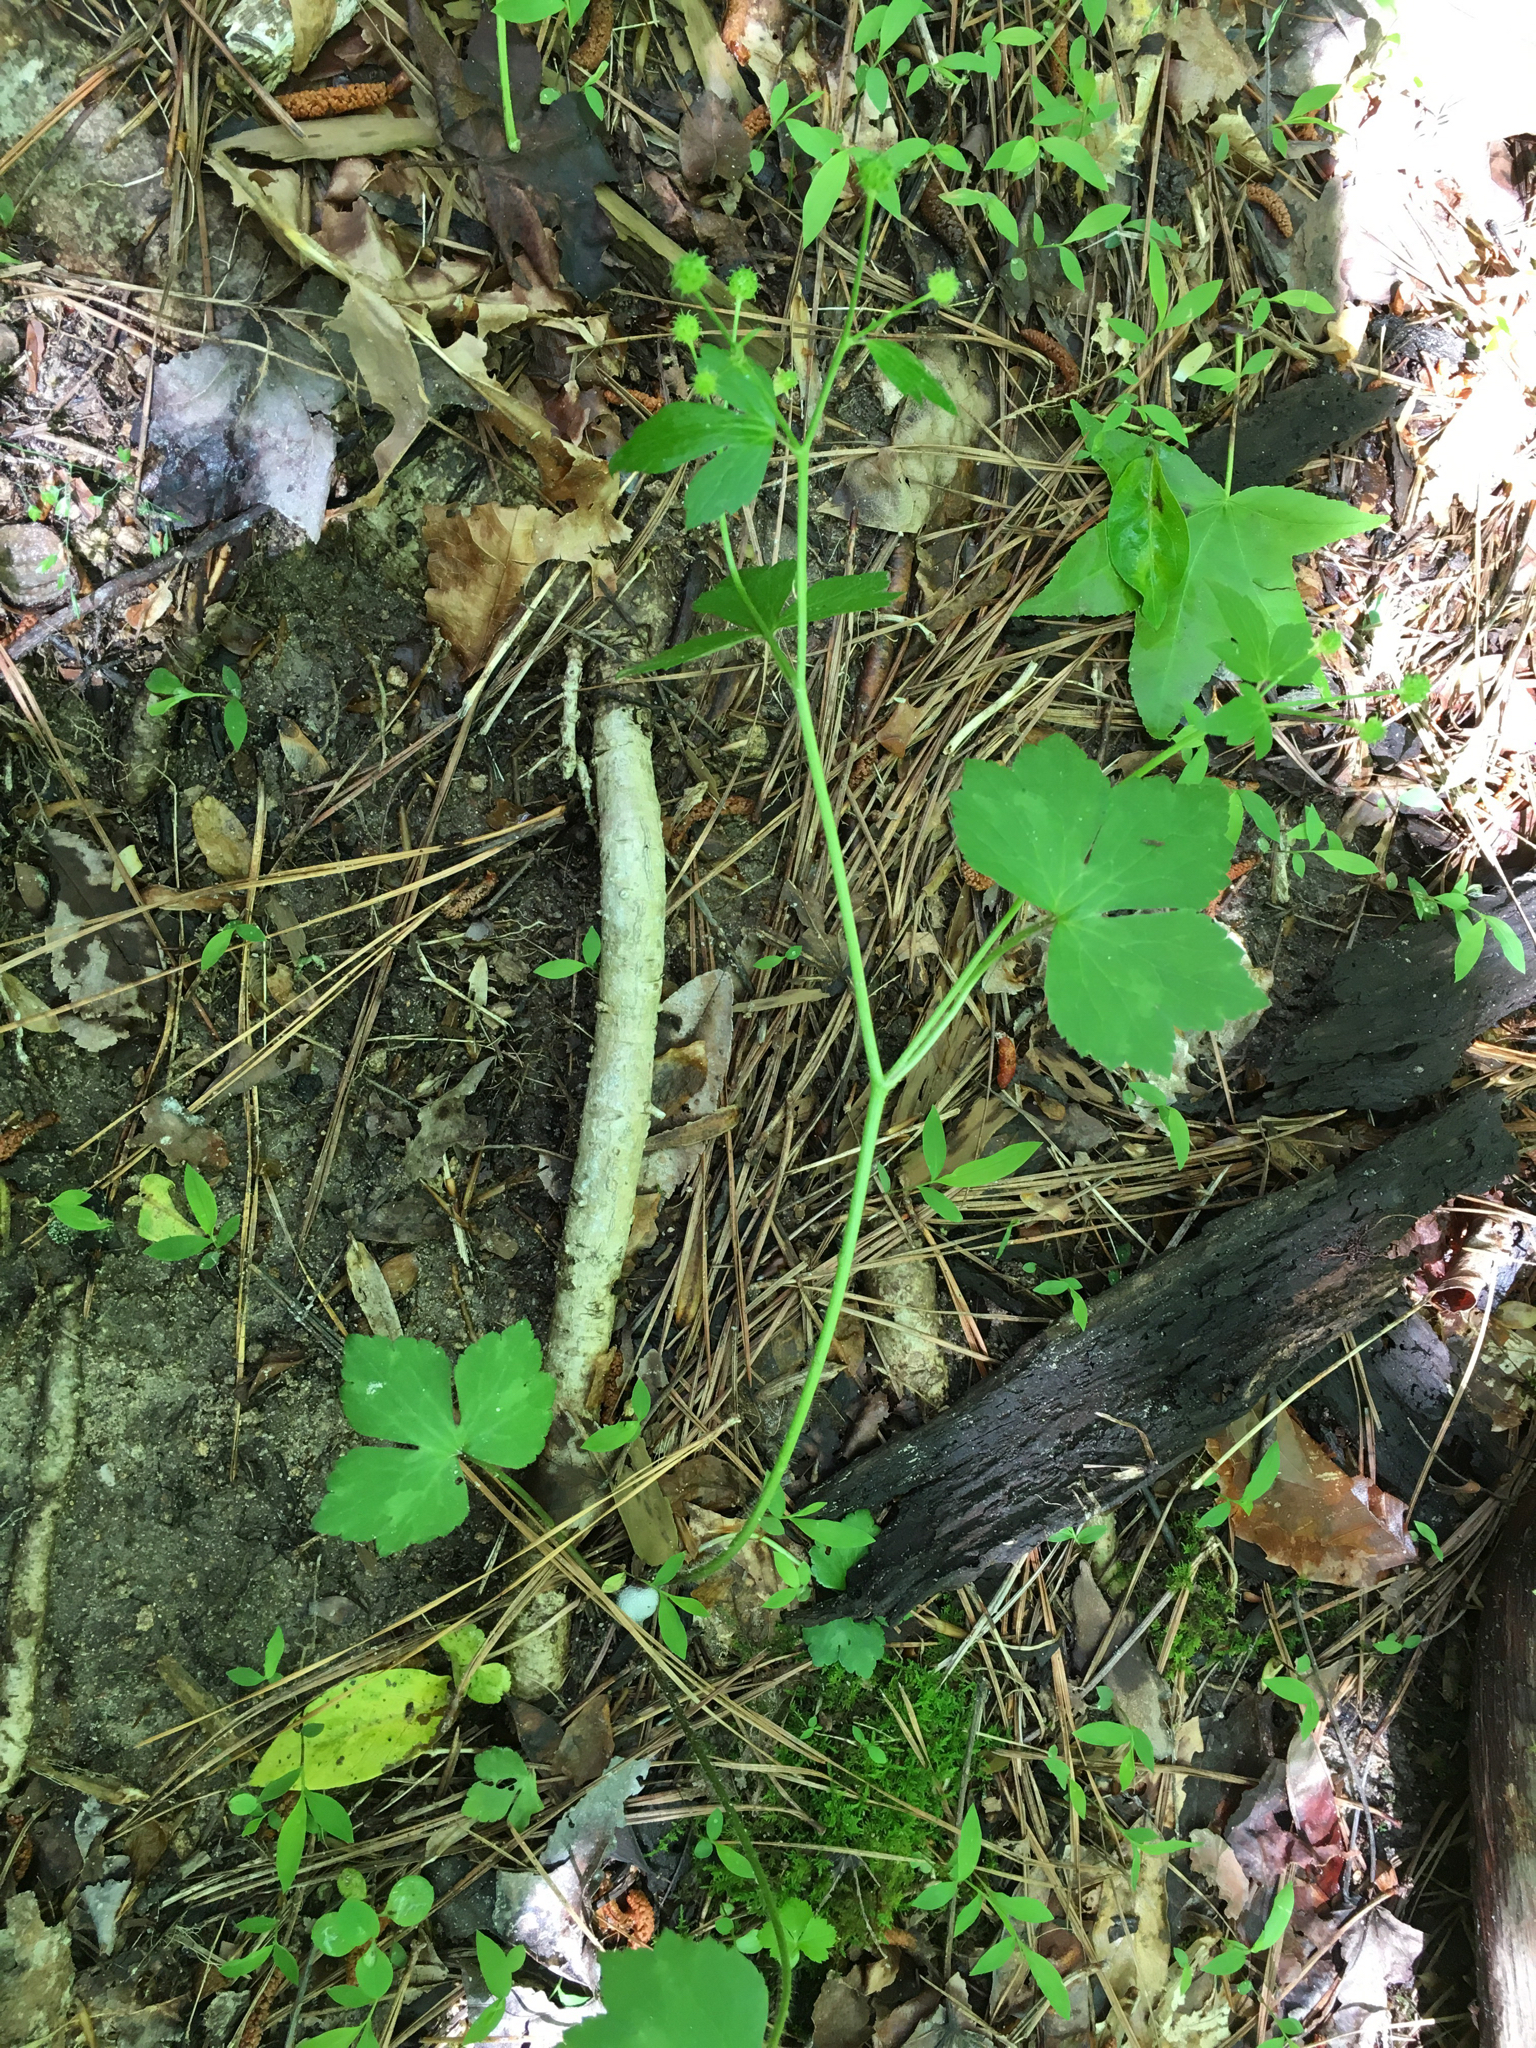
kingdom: Plantae
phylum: Tracheophyta
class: Magnoliopsida
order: Ranunculales
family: Ranunculaceae
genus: Ranunculus
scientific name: Ranunculus recurvatus
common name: Blisterwort
